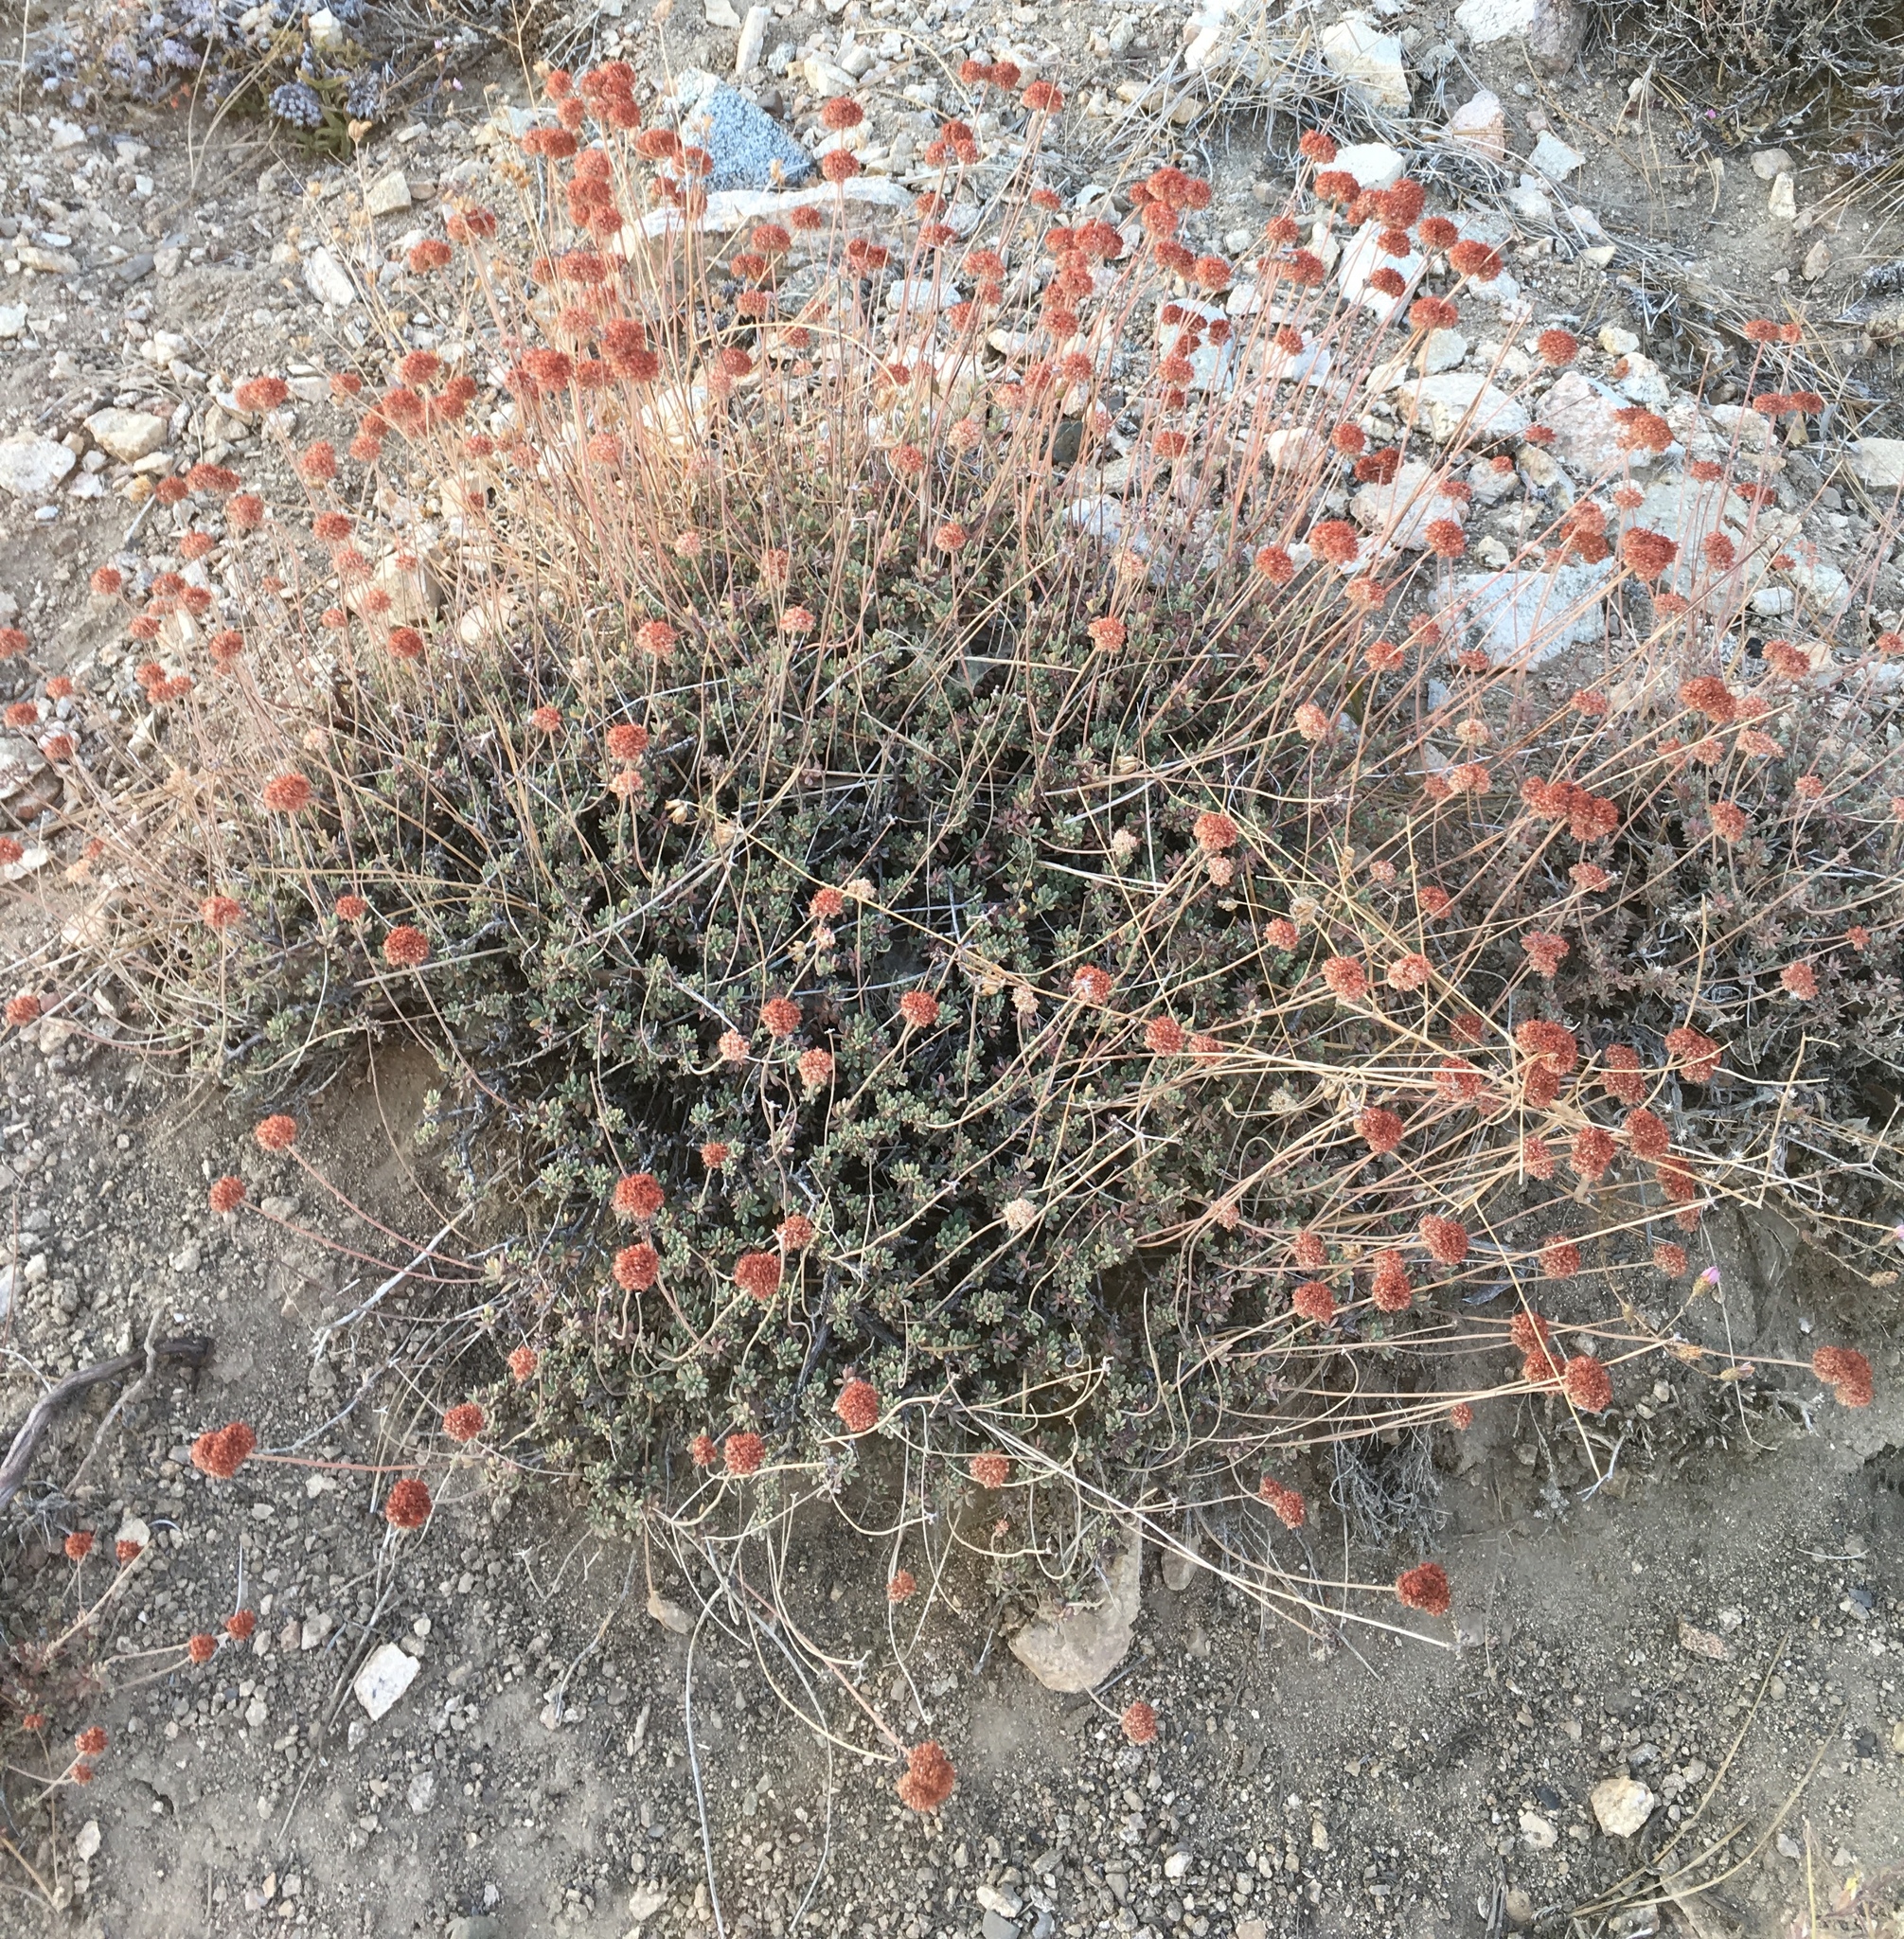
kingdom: Plantae
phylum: Tracheophyta
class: Magnoliopsida
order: Caryophyllales
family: Polygonaceae
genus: Eriogonum
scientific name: Eriogonum fasciculatum
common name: California wild buckwheat
